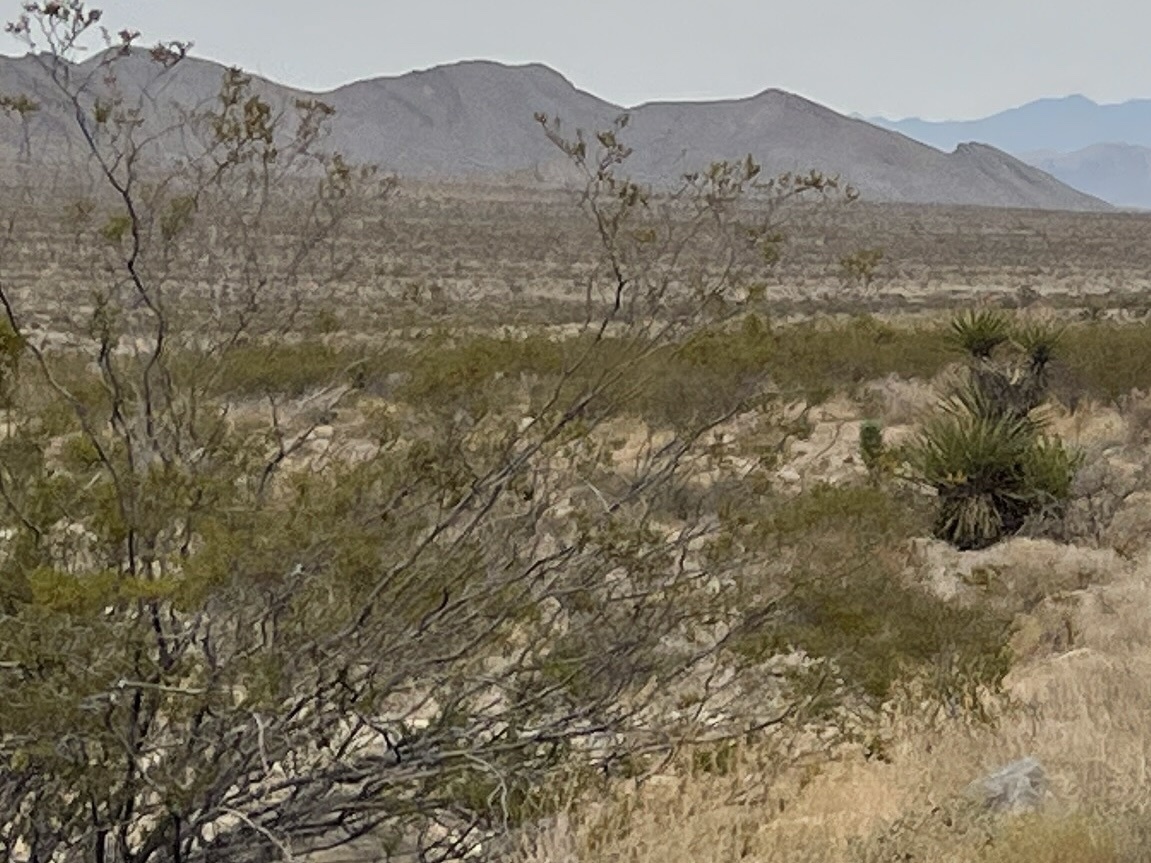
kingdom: Plantae
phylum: Tracheophyta
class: Magnoliopsida
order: Zygophyllales
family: Zygophyllaceae
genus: Larrea
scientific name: Larrea tridentata
